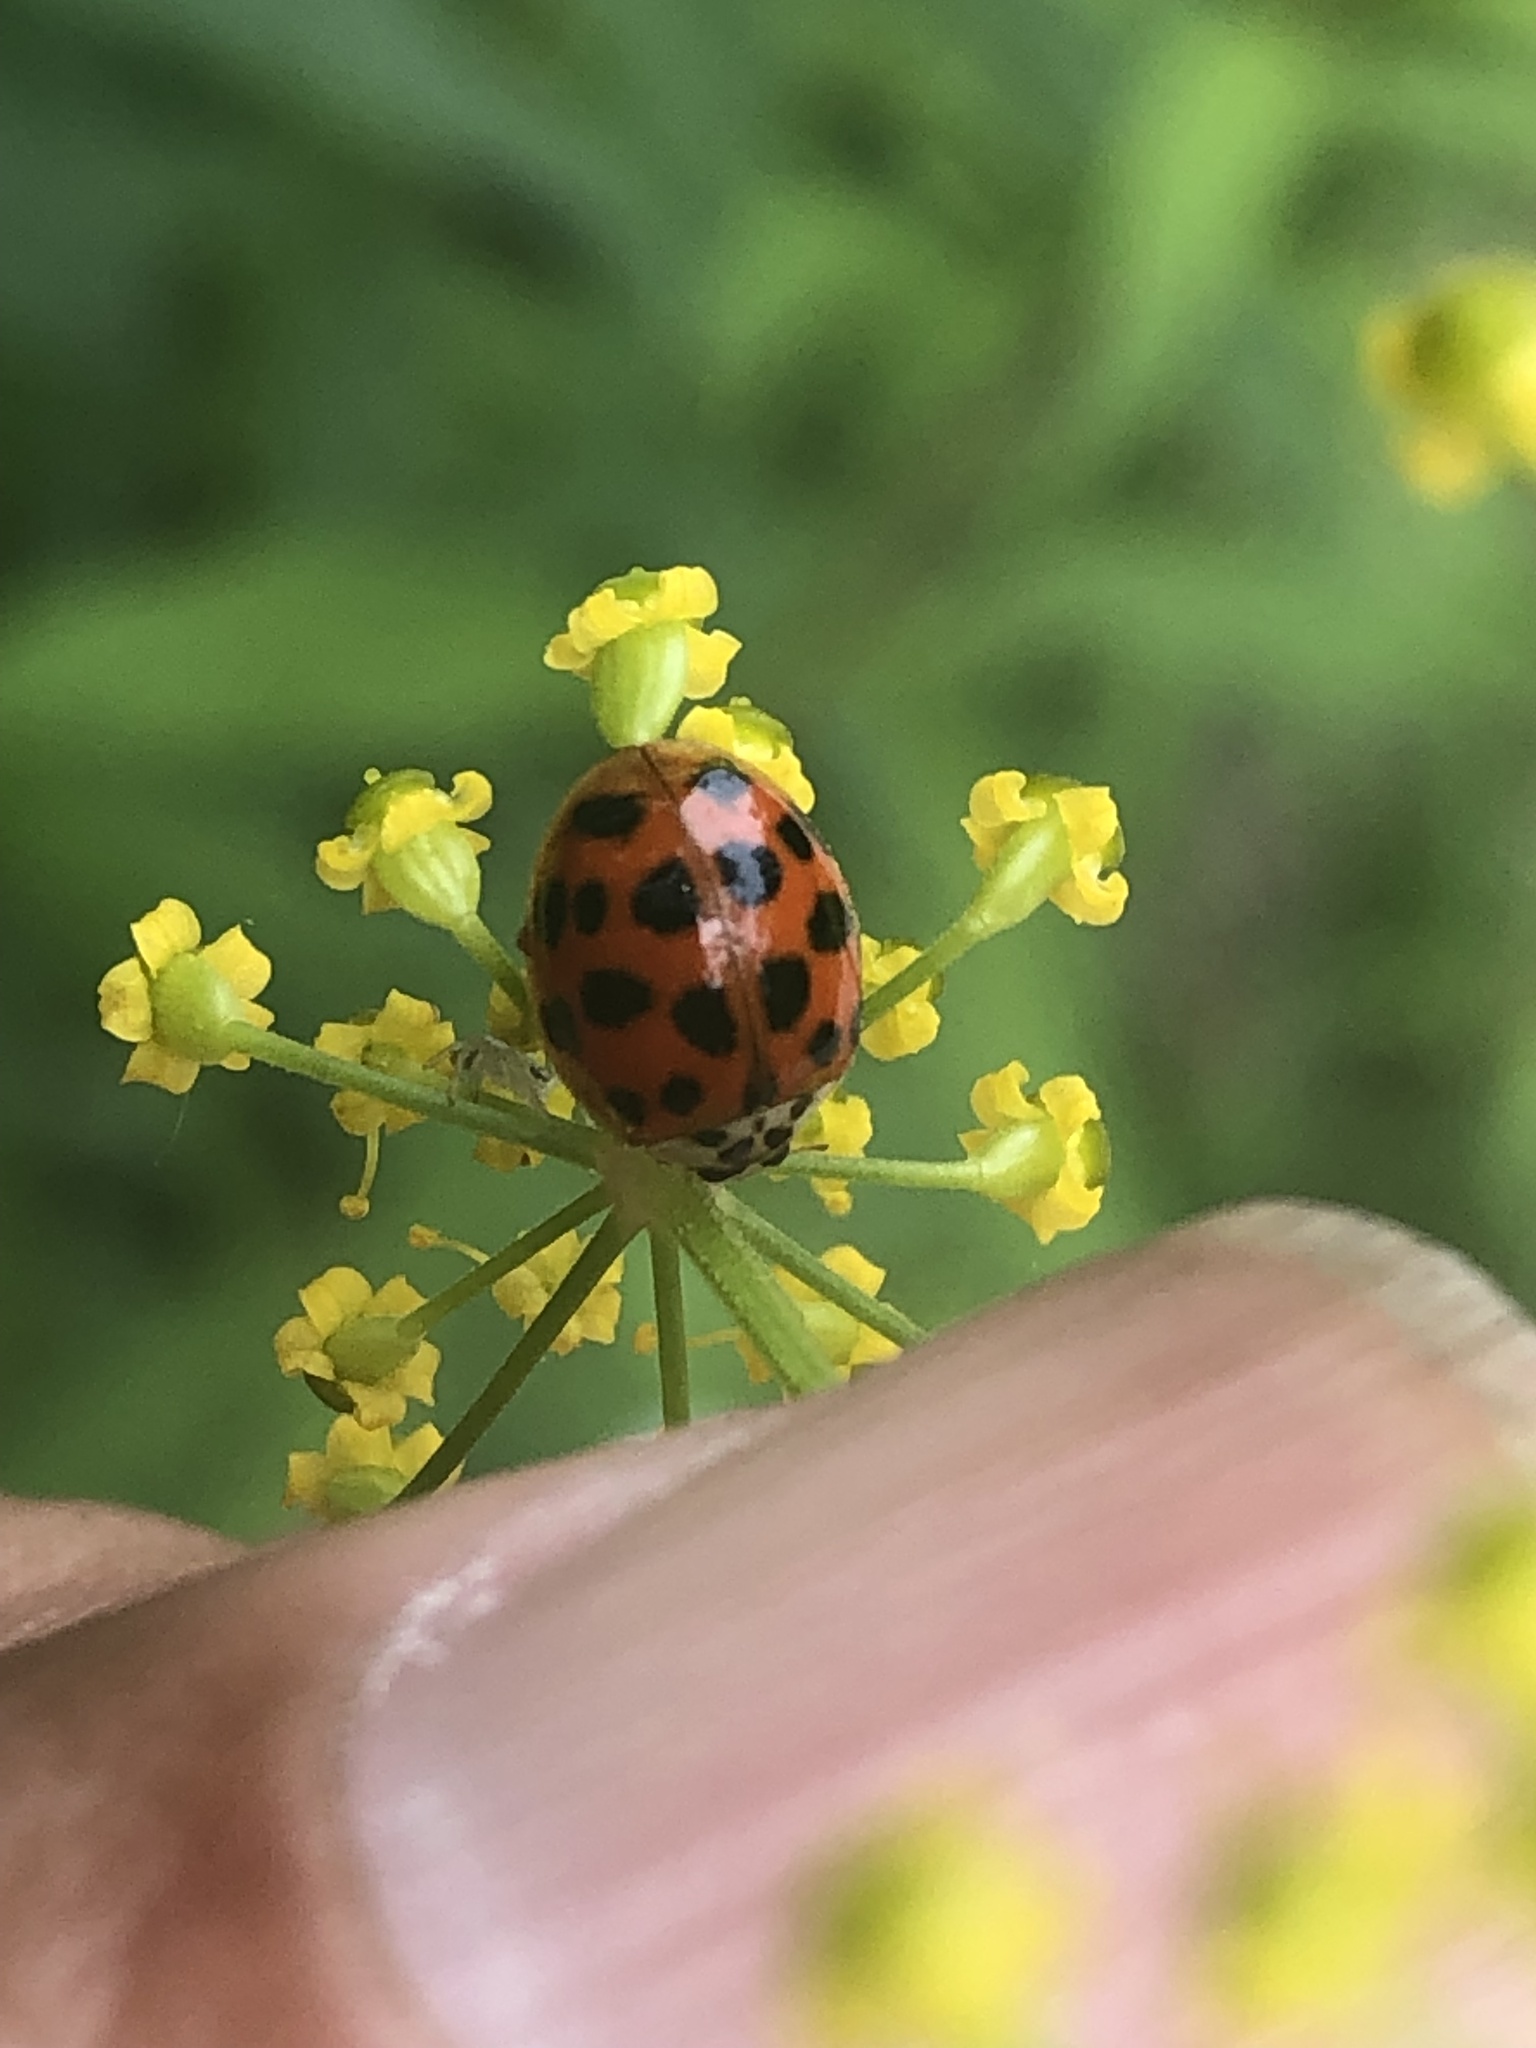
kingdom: Animalia
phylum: Arthropoda
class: Insecta
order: Coleoptera
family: Coccinellidae
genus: Harmonia
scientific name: Harmonia axyridis
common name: Harlequin ladybird
